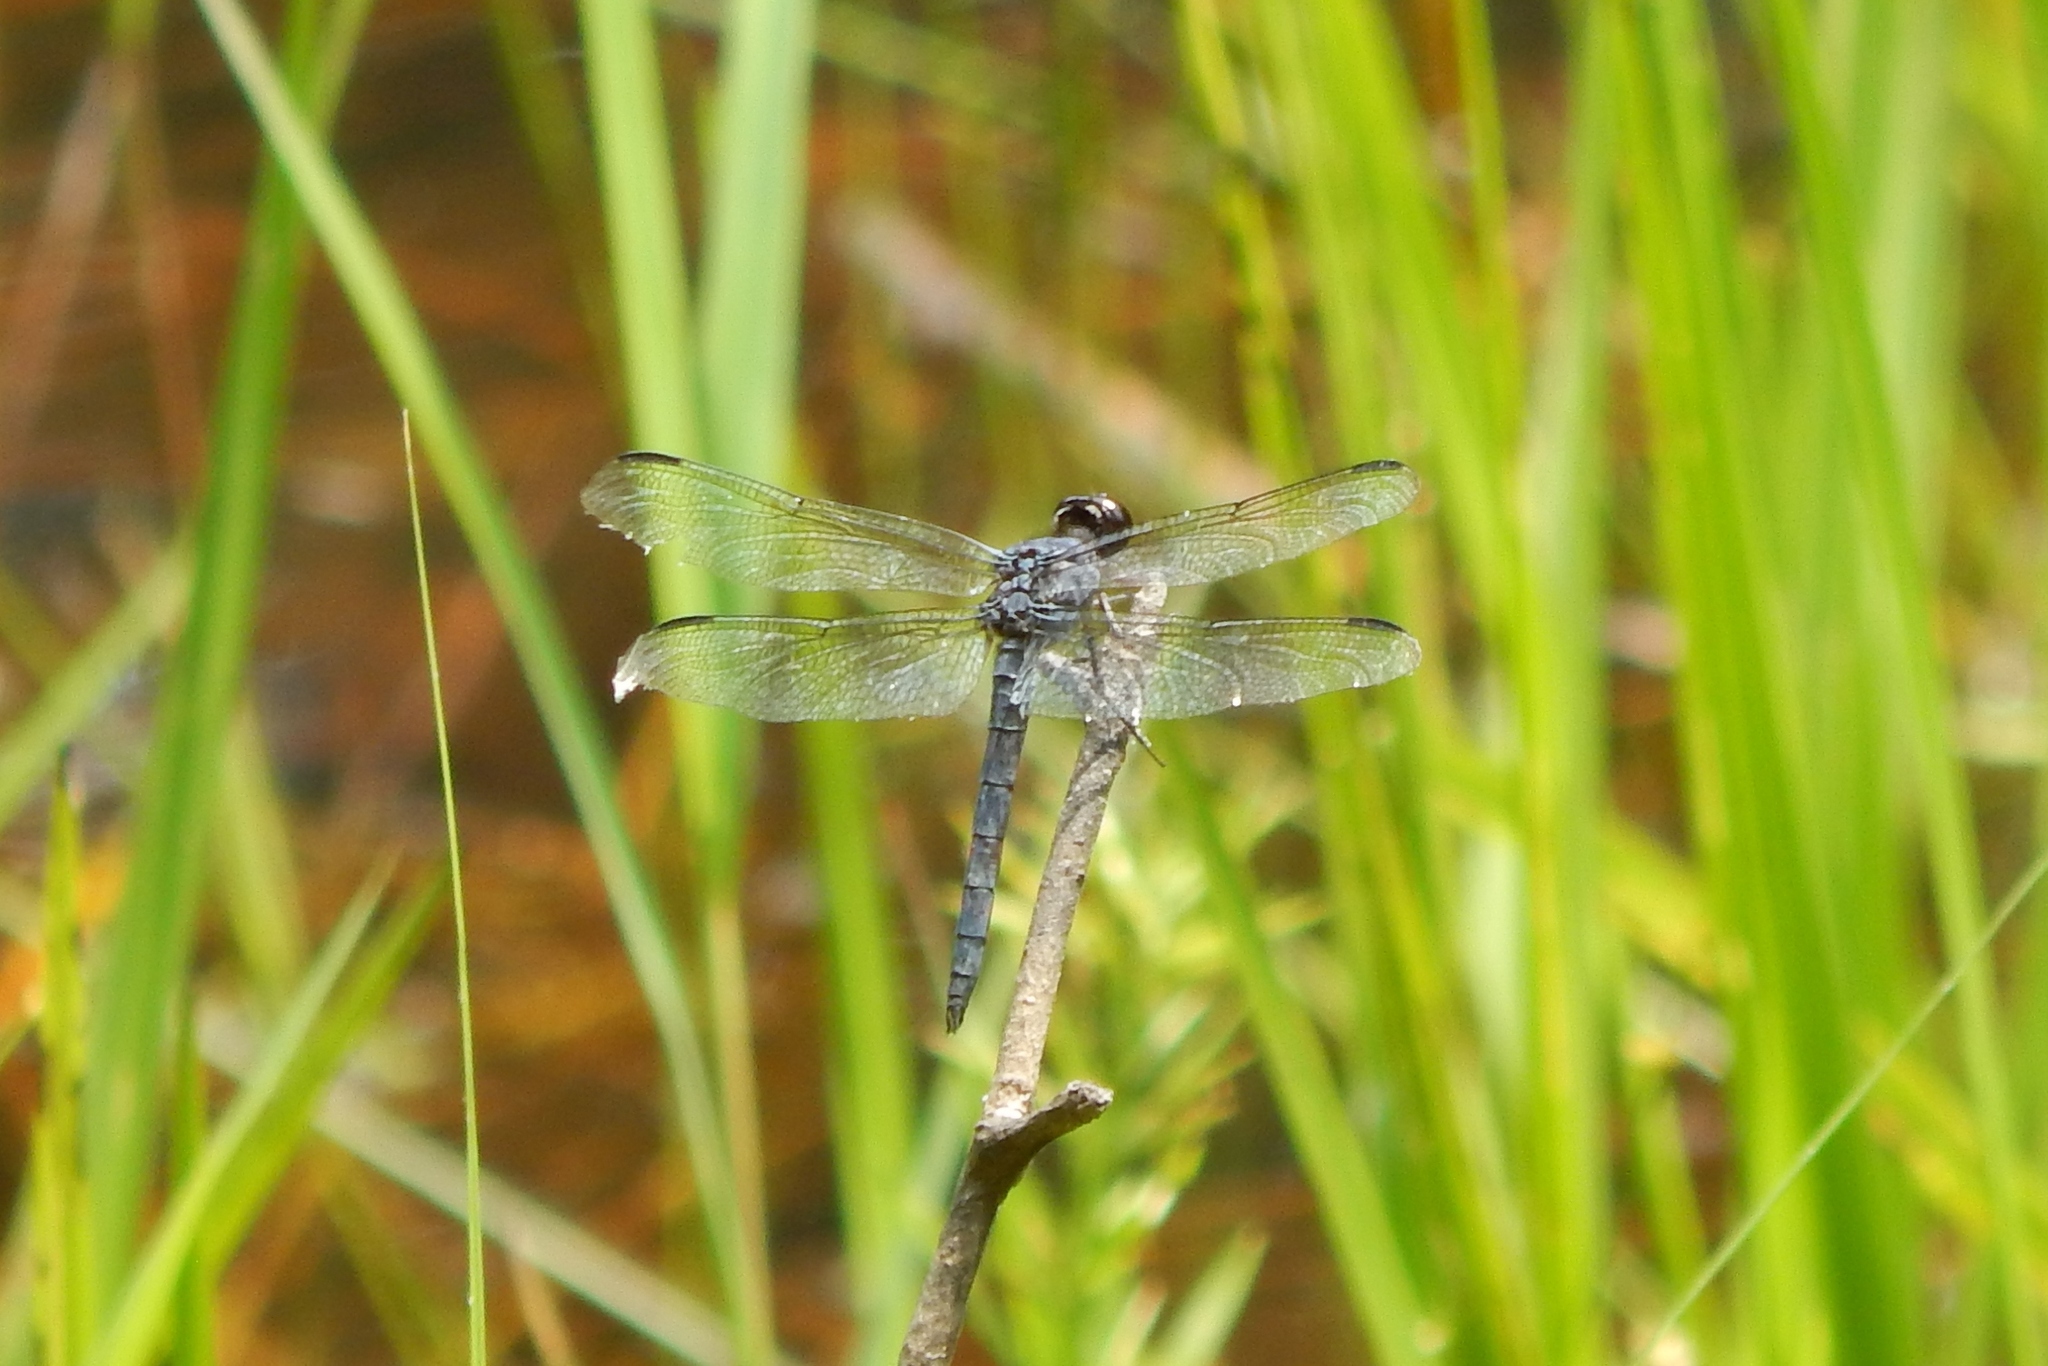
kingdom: Animalia
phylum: Arthropoda
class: Insecta
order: Odonata
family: Libellulidae
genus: Libellula
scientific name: Libellula incesta
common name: Slaty skimmer
